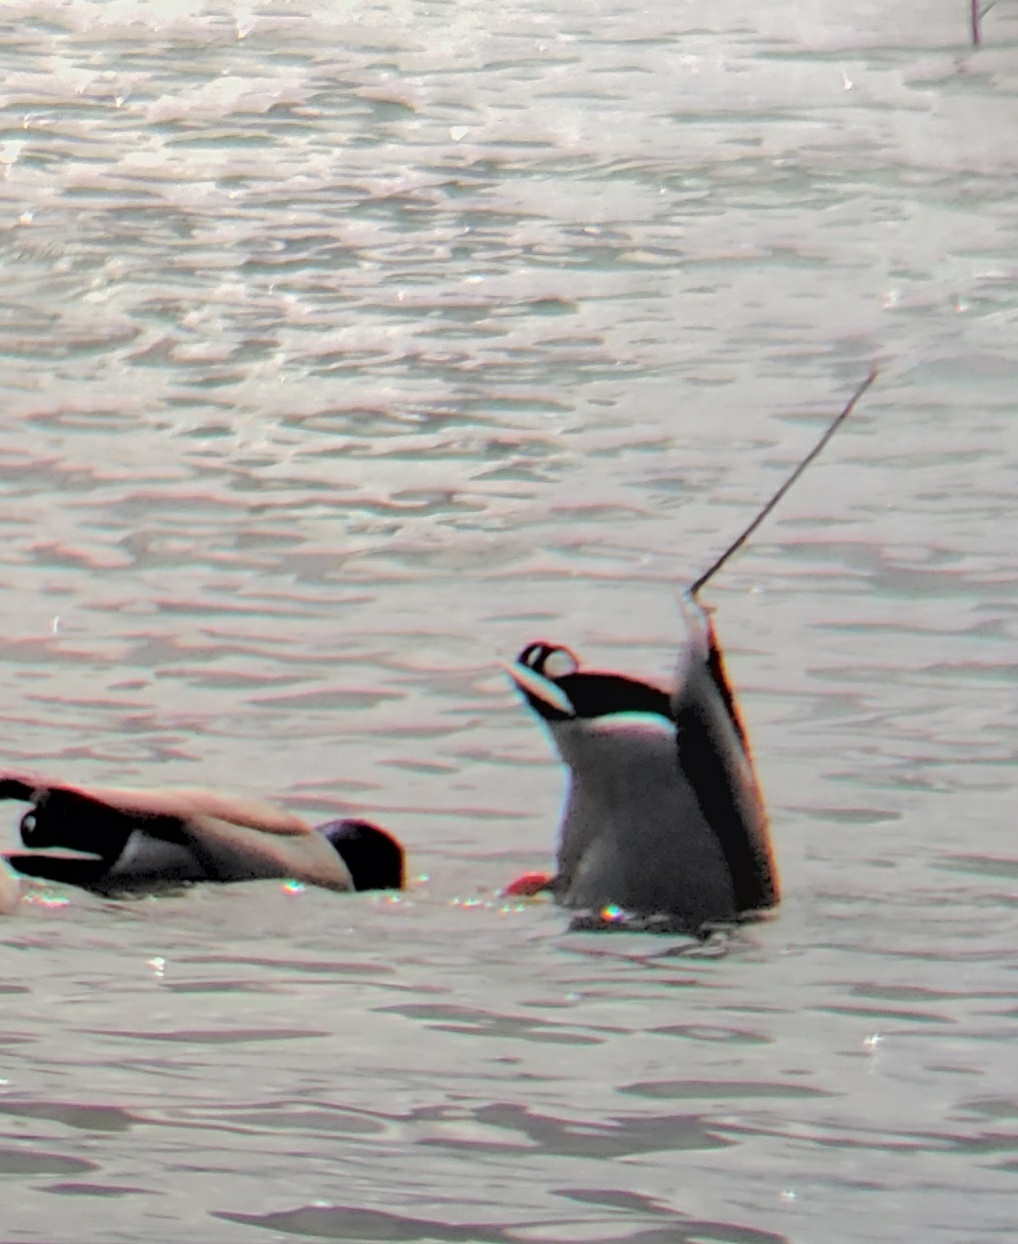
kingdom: Animalia
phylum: Chordata
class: Aves
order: Anseriformes
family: Anatidae
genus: Anas
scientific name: Anas platyrhynchos
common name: Mallard
